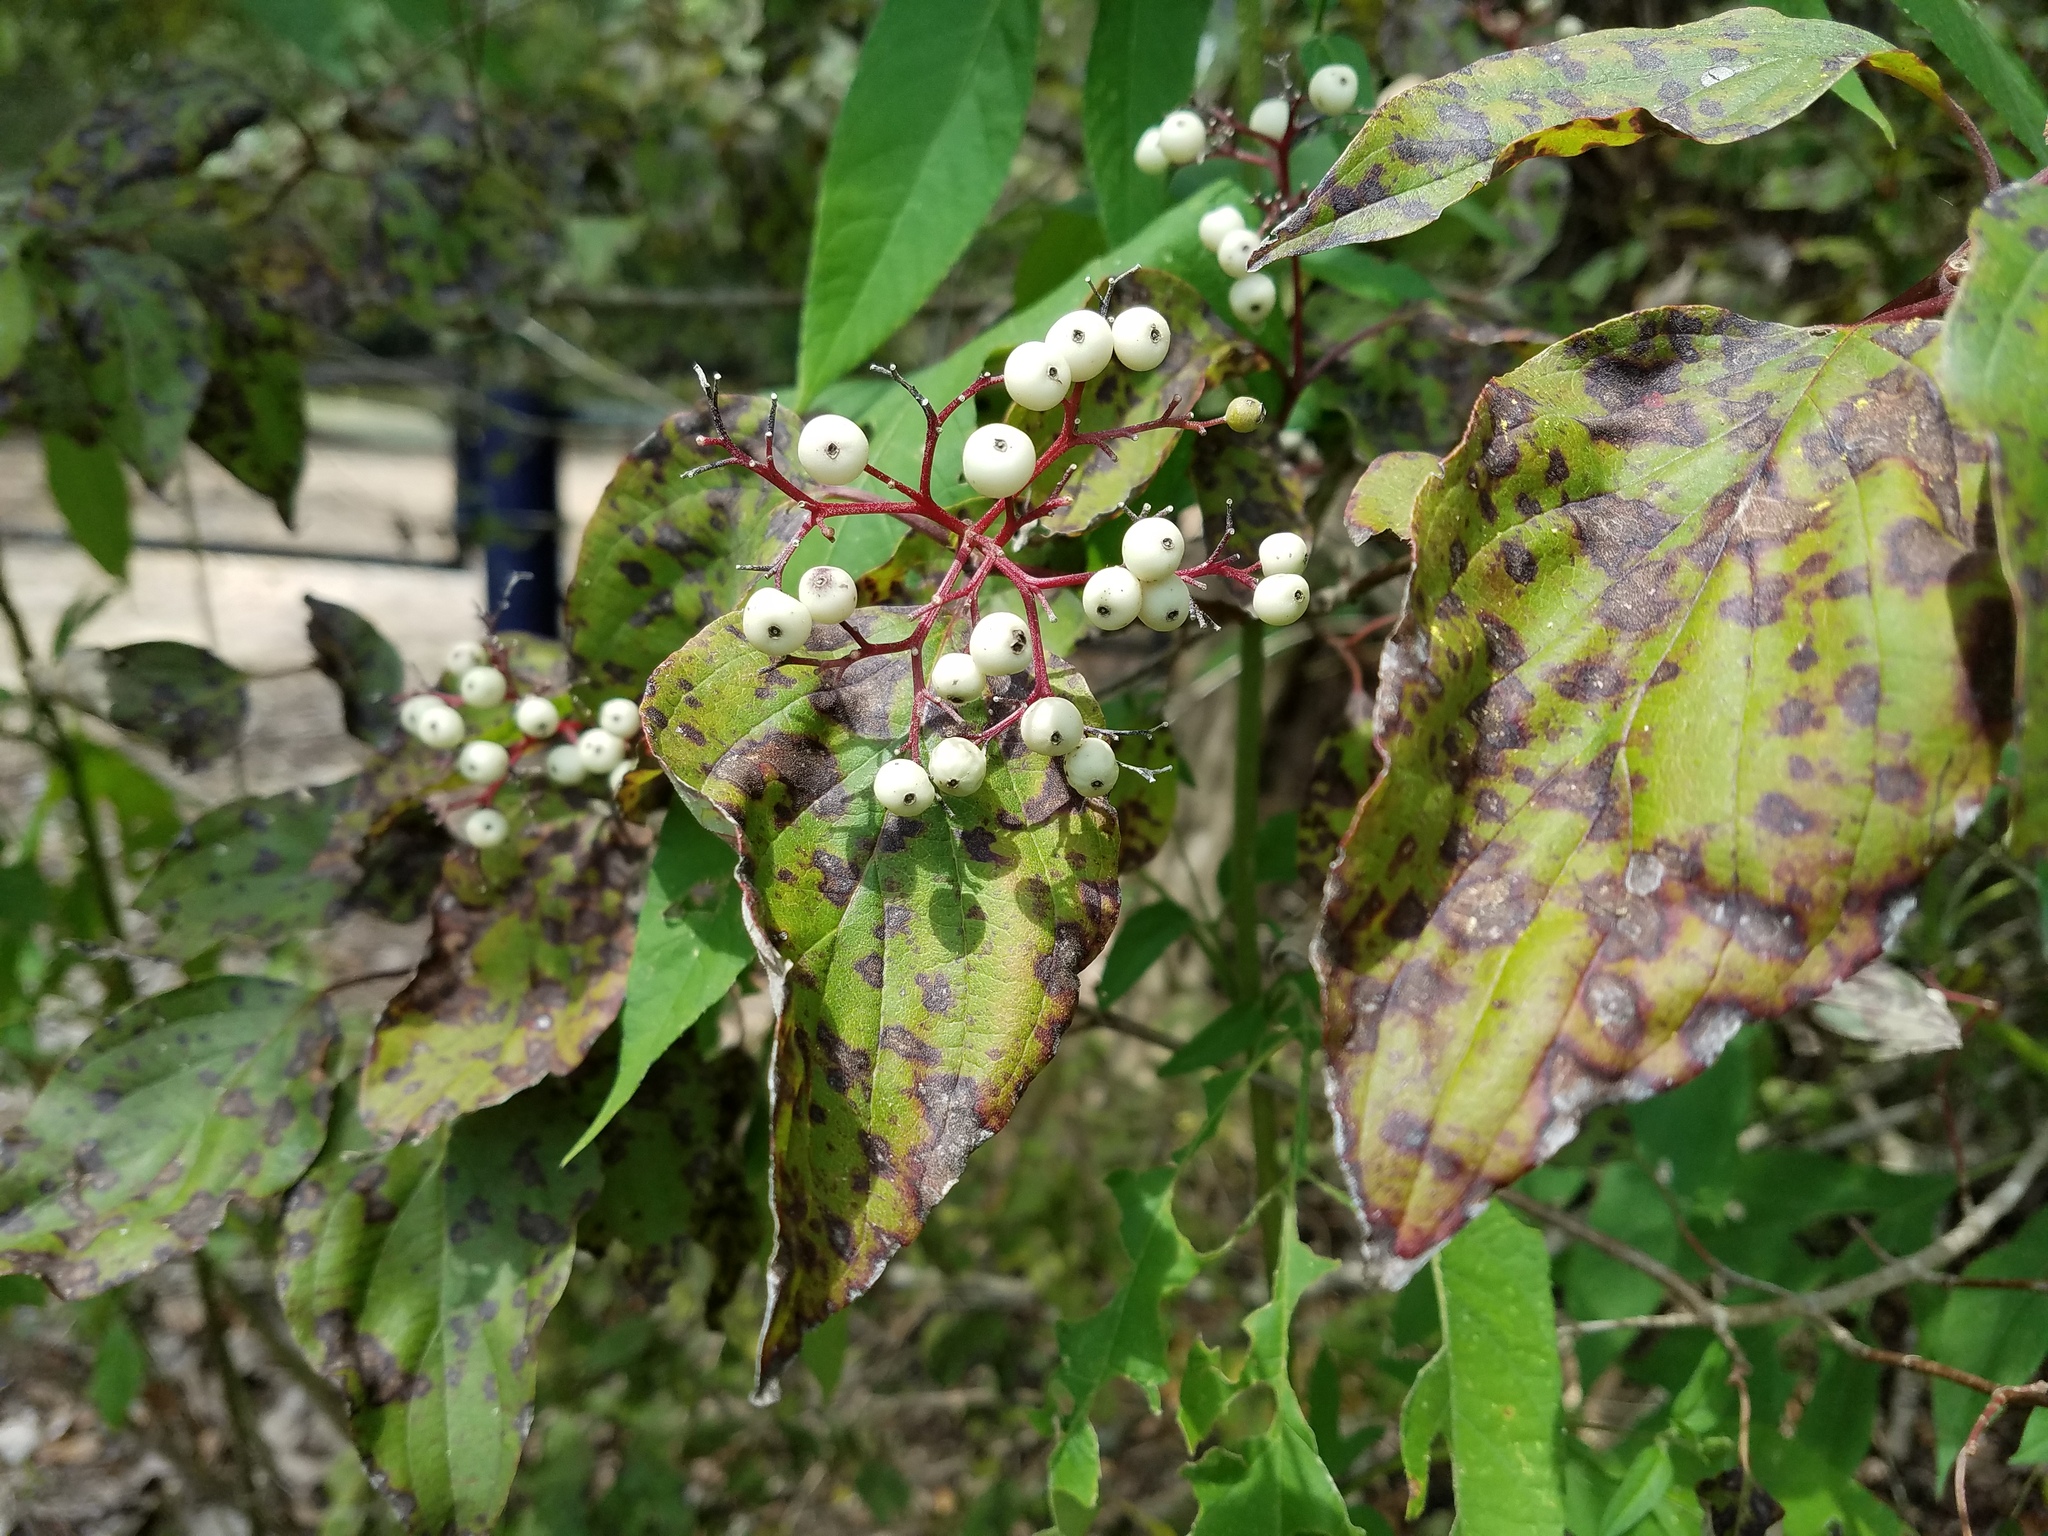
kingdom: Plantae
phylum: Tracheophyta
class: Magnoliopsida
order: Cornales
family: Cornaceae
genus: Cornus
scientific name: Cornus drummondii
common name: Rough-leaf dogwood
